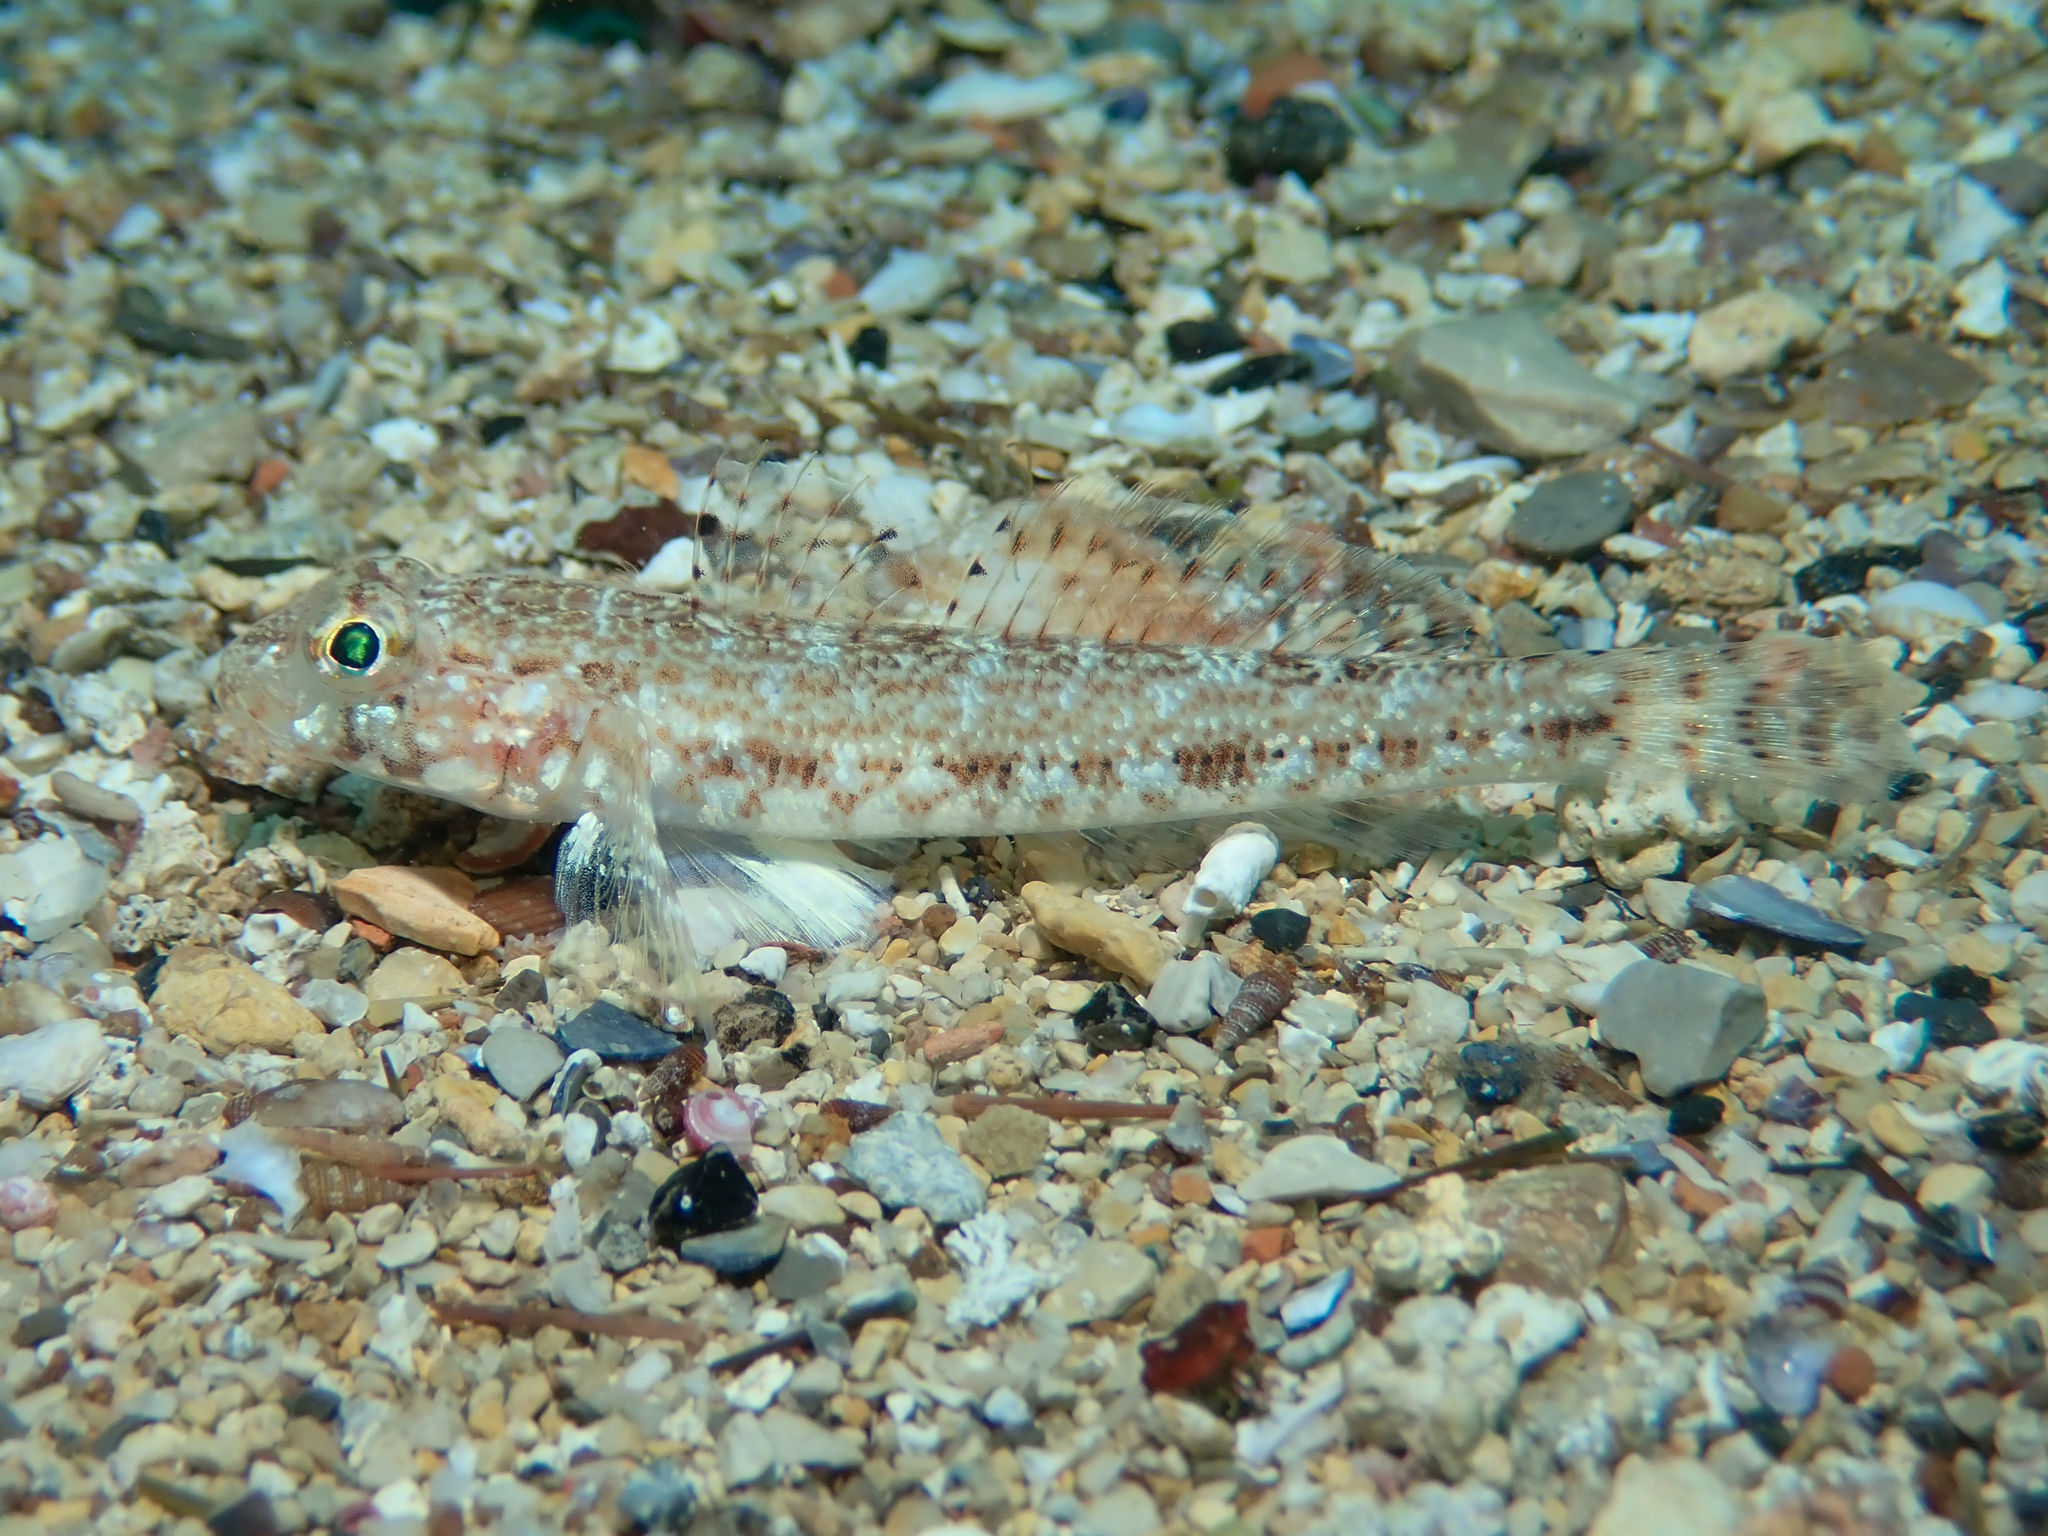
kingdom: Animalia
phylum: Chordata
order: Perciformes
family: Gobiidae
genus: Gobius
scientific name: Gobius geniporus
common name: Slender goby
